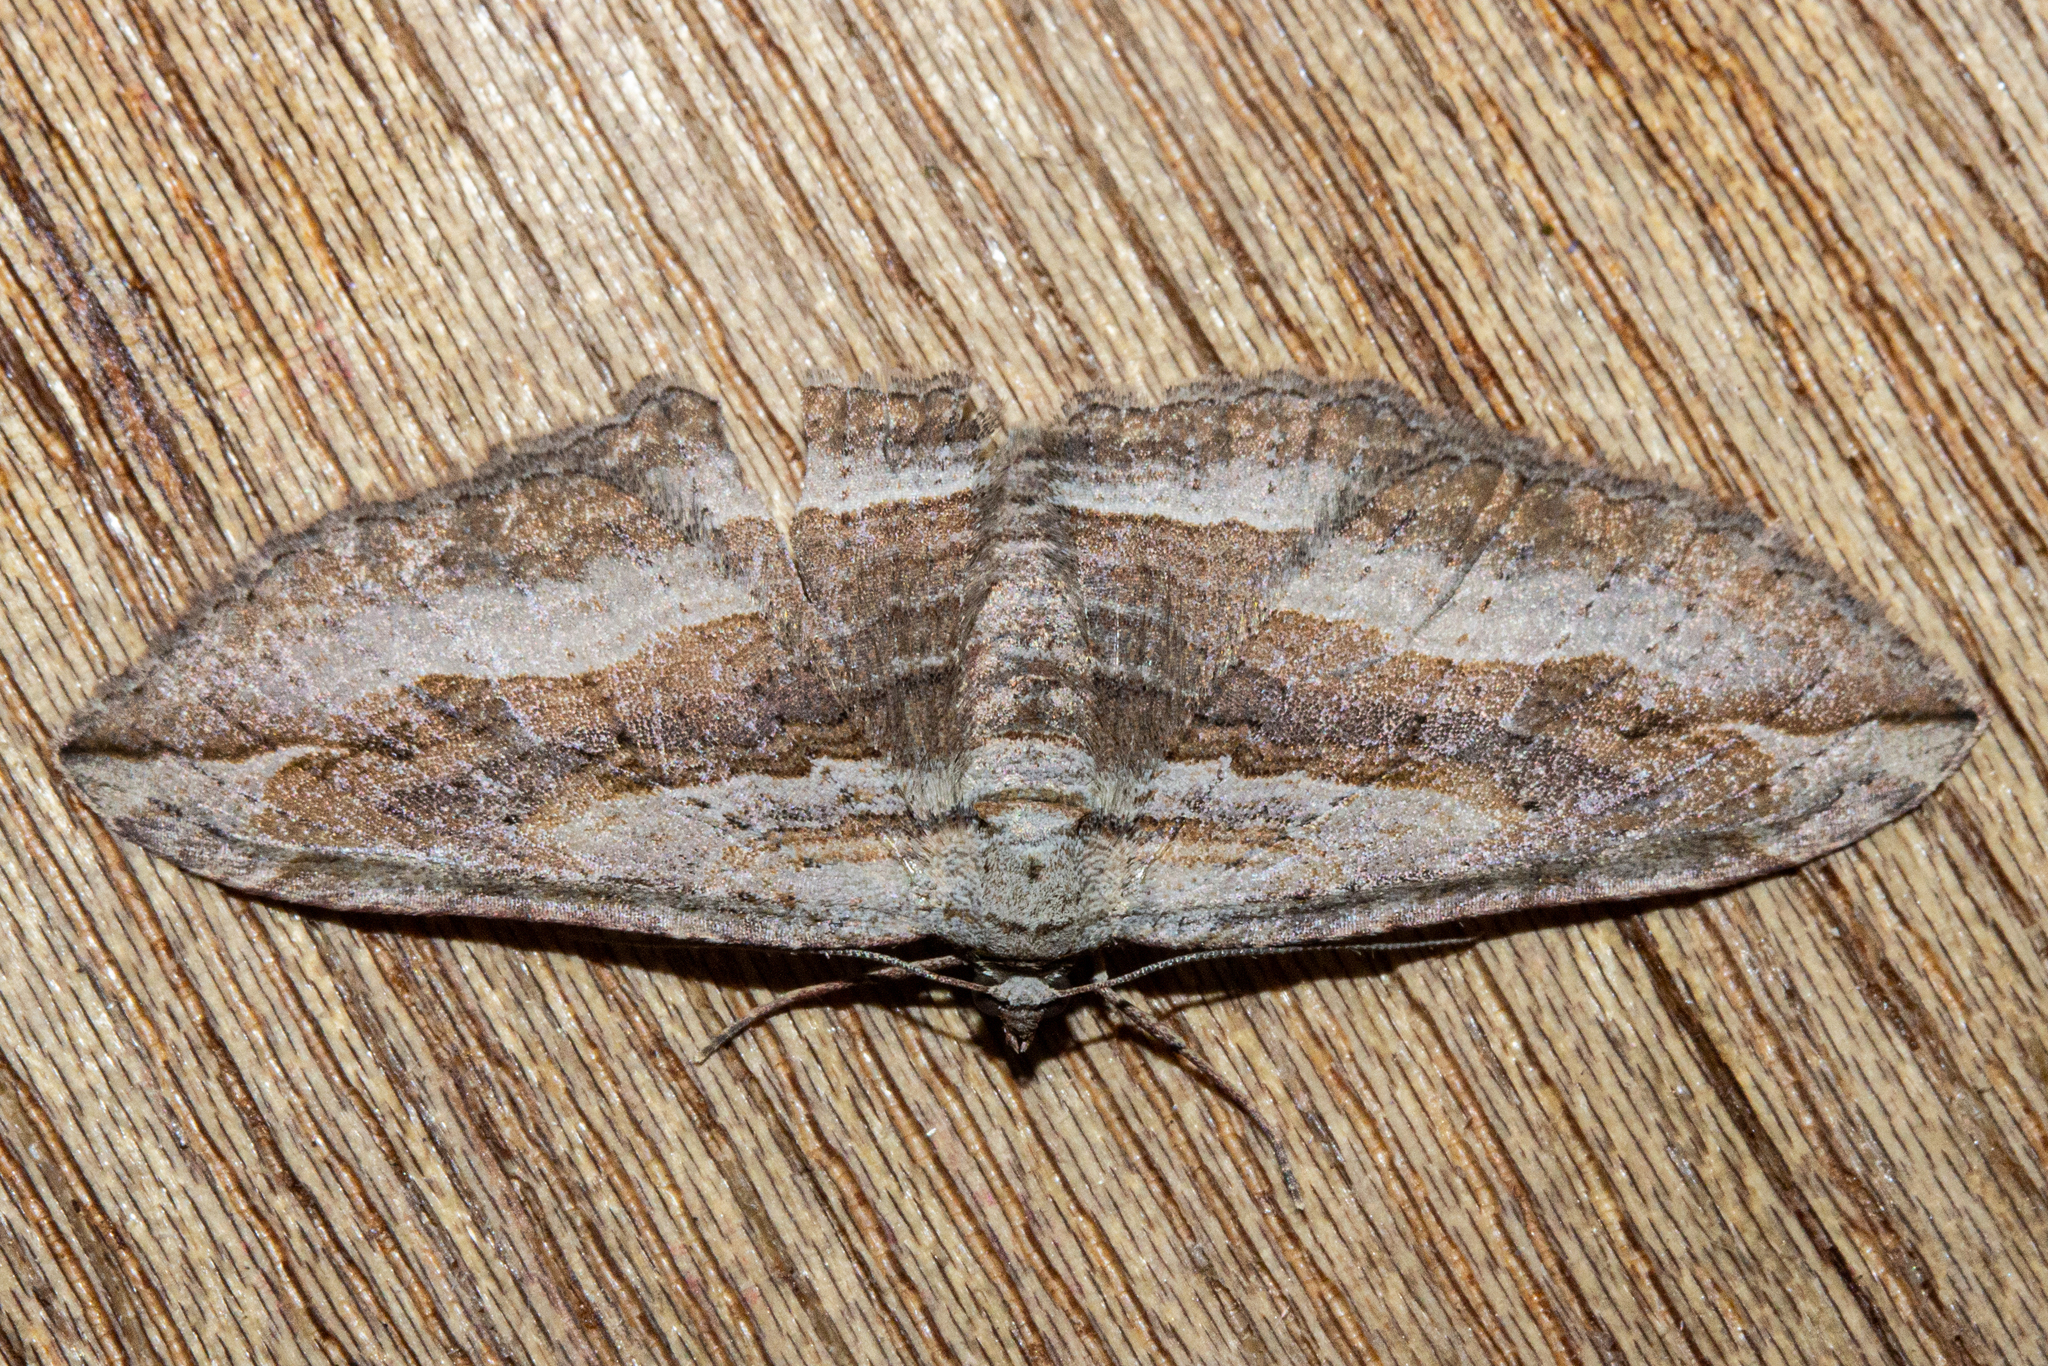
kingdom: Animalia
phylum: Arthropoda
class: Insecta
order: Lepidoptera
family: Geometridae
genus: Austrocidaria
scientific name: Austrocidaria gobiata
